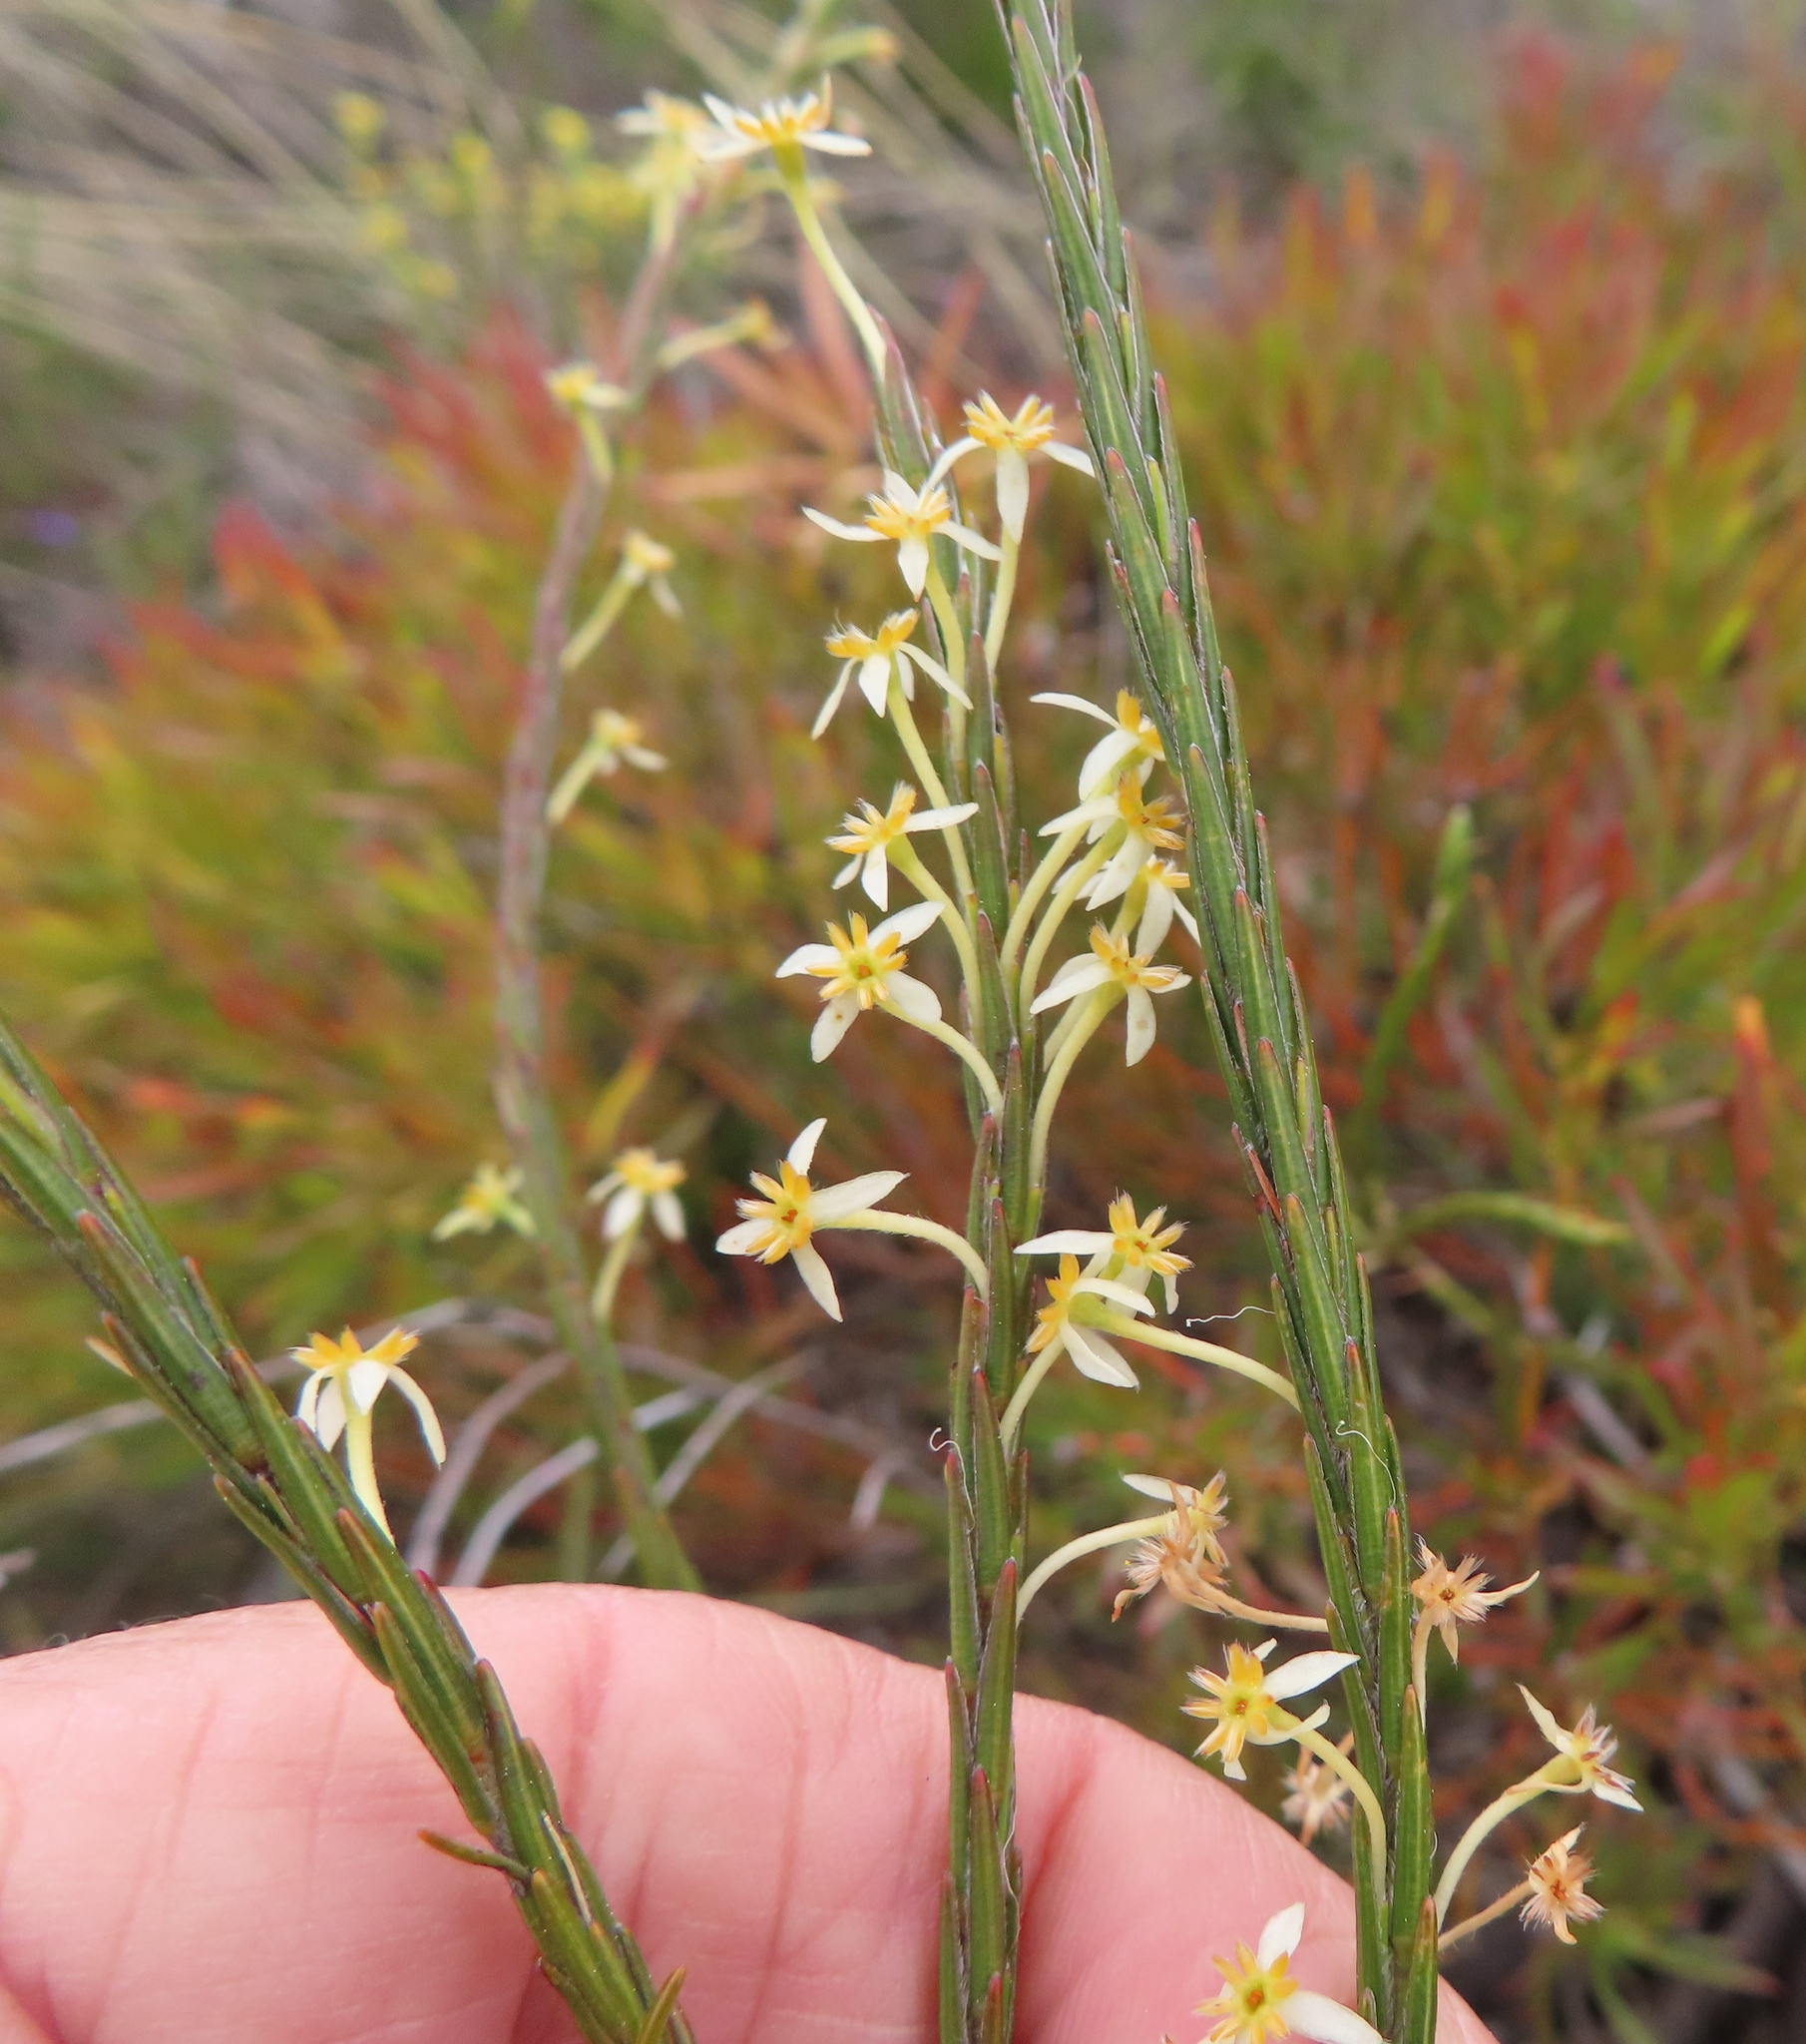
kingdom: Plantae
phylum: Tracheophyta
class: Magnoliopsida
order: Malvales
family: Thymelaeaceae
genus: Struthiola
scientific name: Struthiola ciliata
